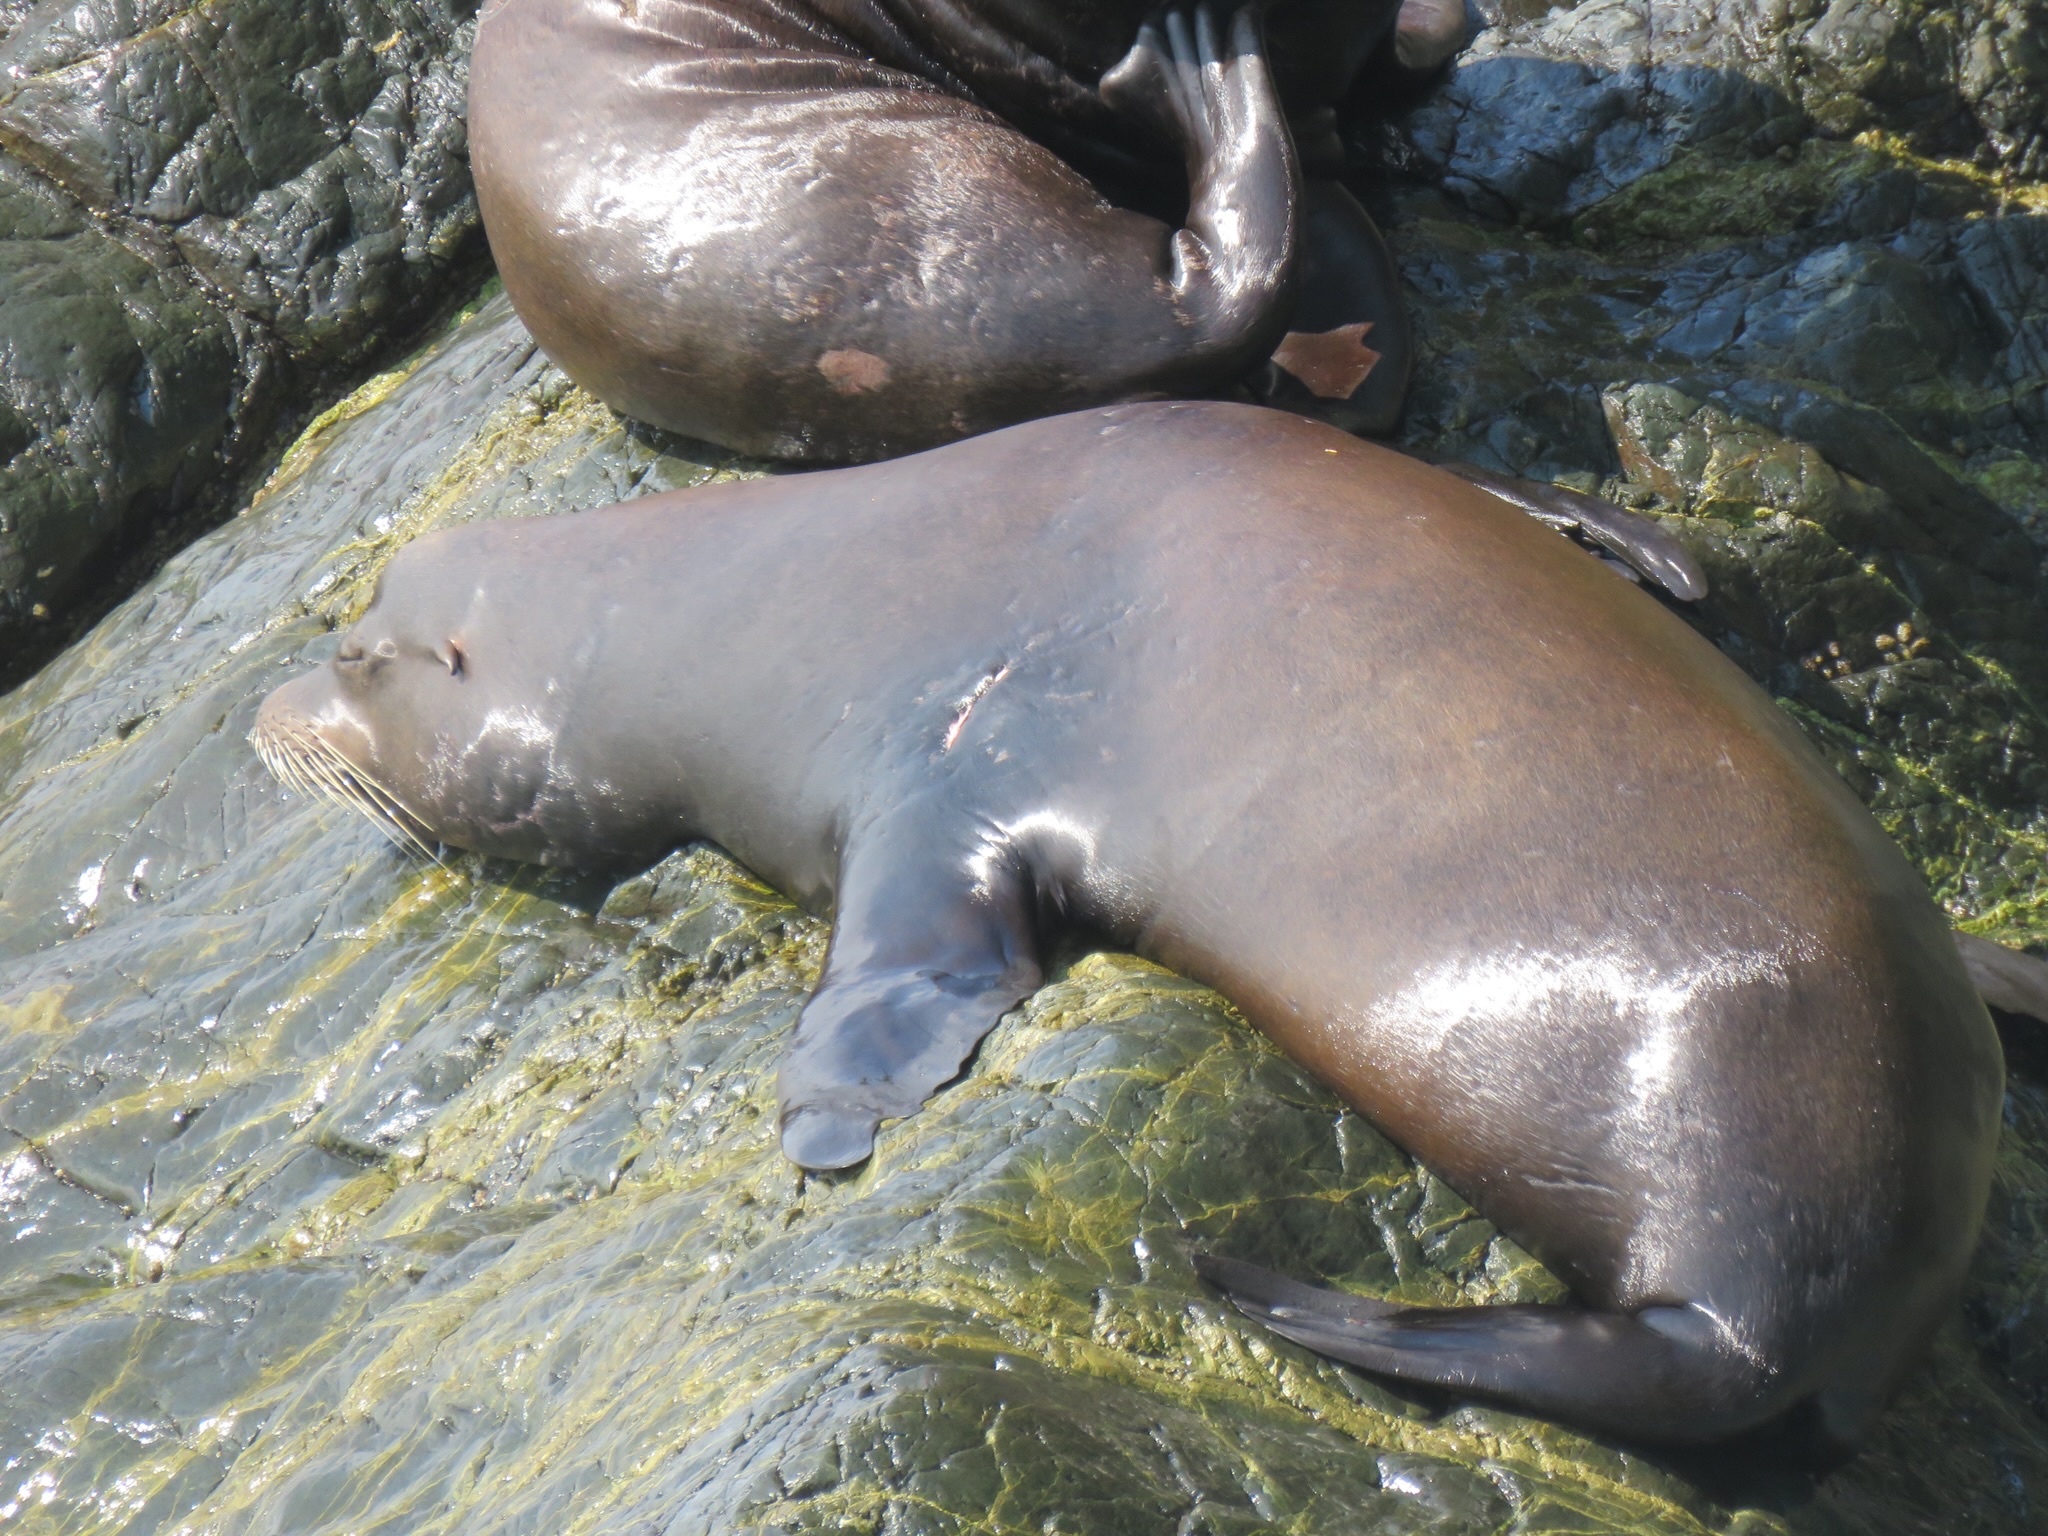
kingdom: Animalia
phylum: Chordata
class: Mammalia
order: Carnivora
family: Otariidae
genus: Zalophus
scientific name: Zalophus californianus
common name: California sea lion
